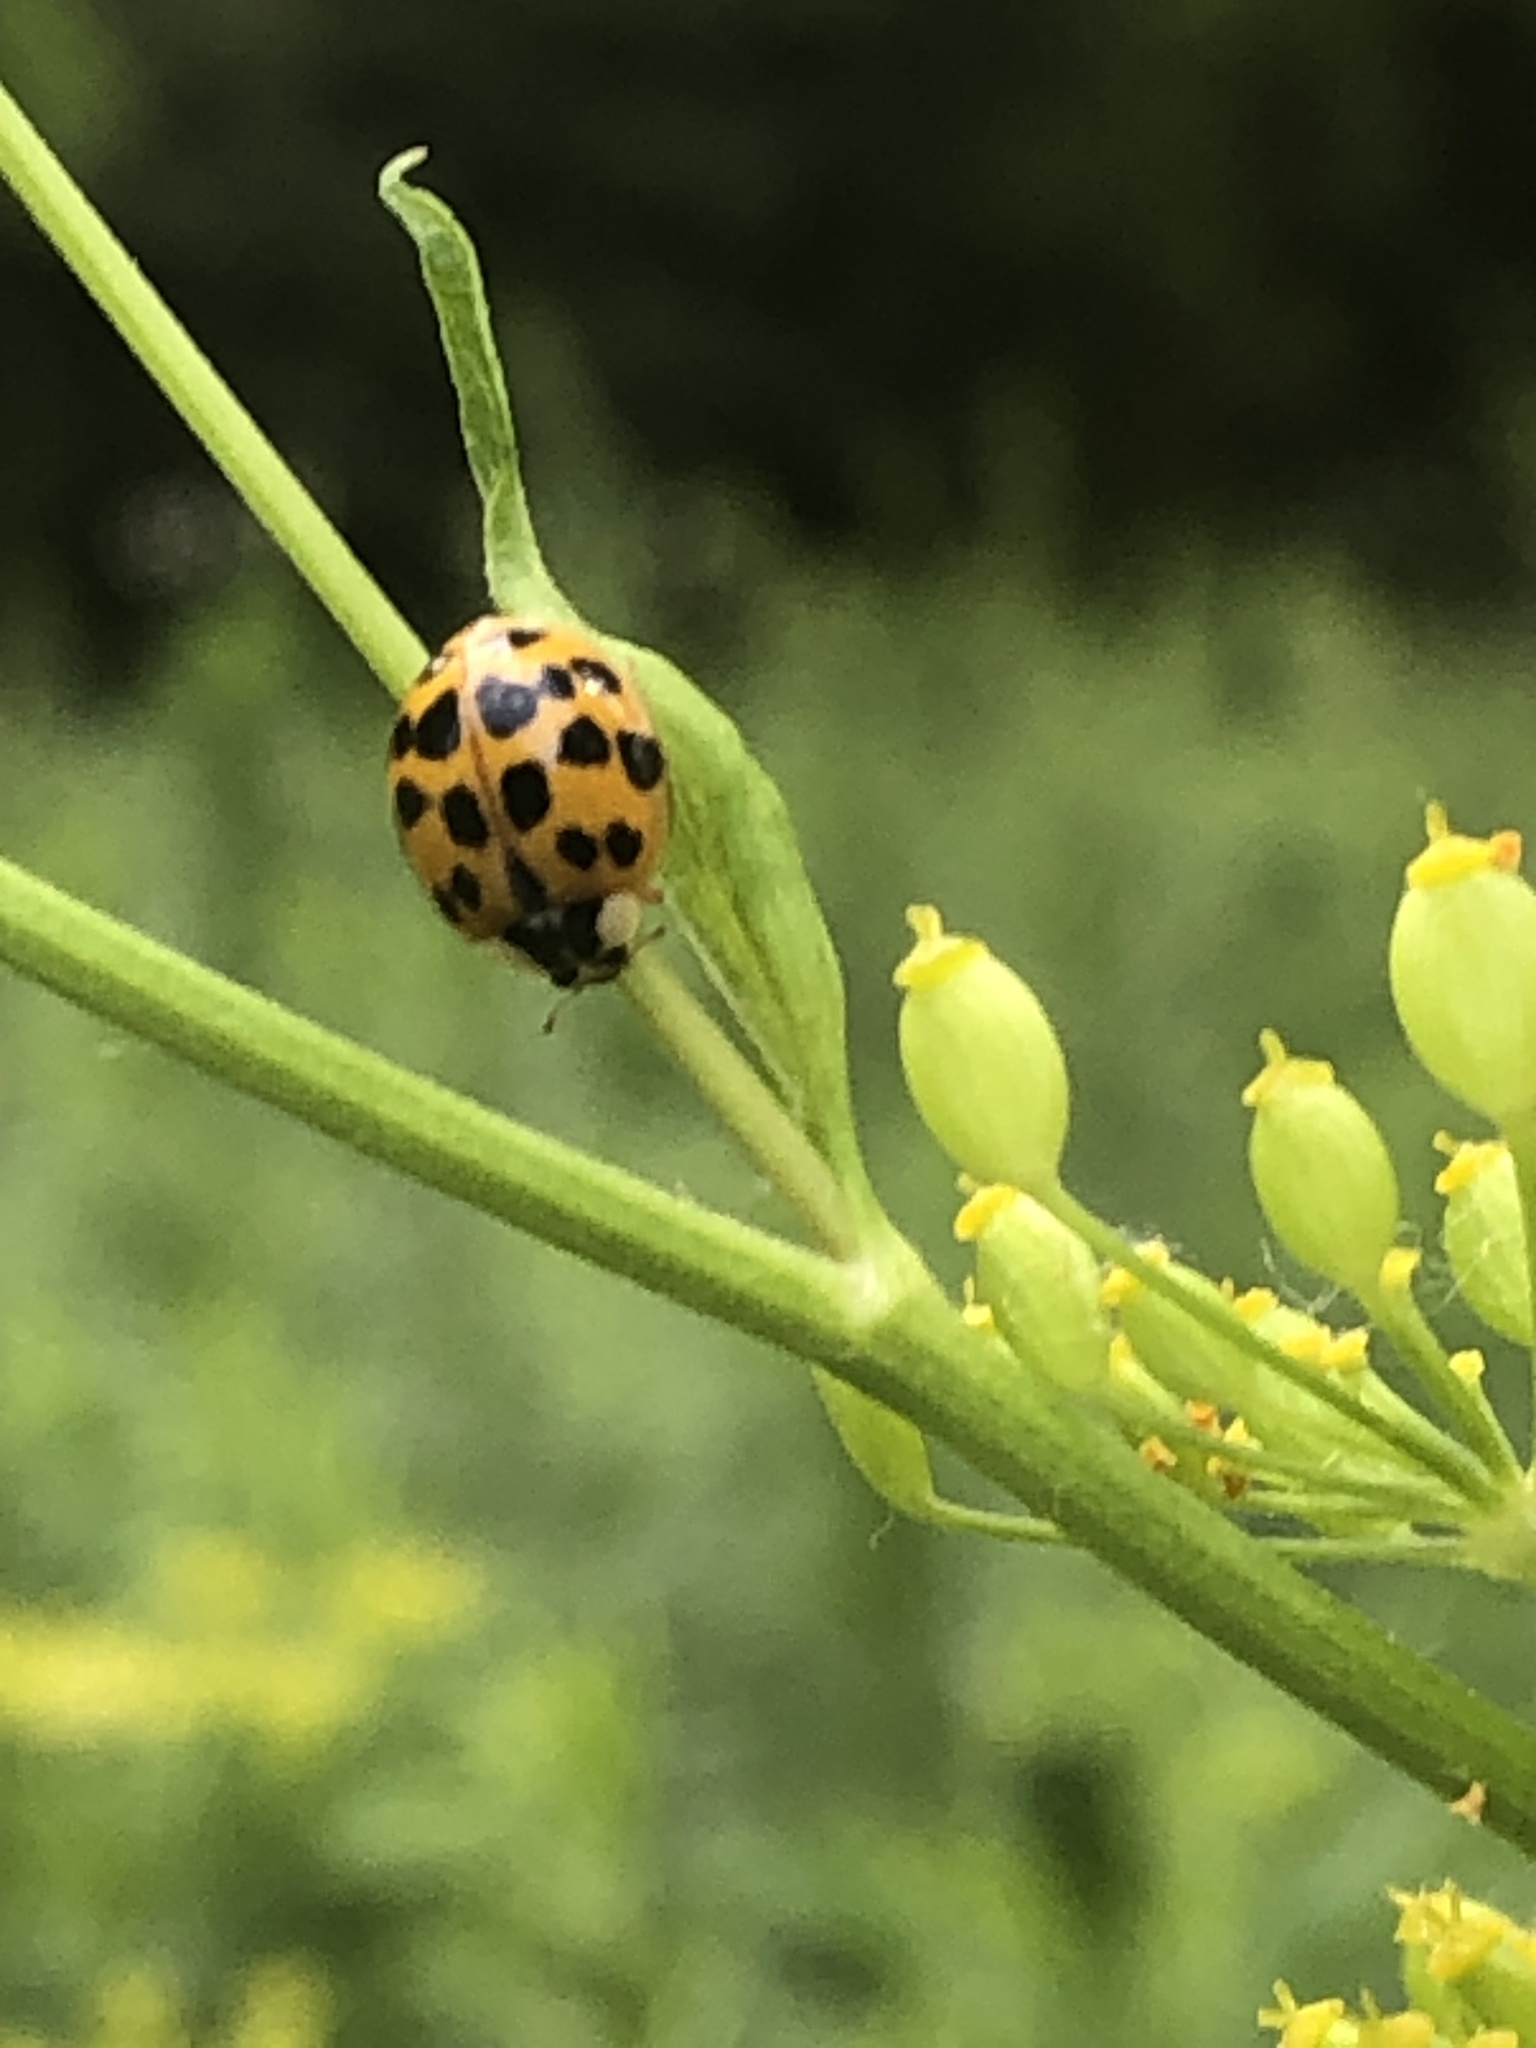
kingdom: Animalia
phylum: Arthropoda
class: Insecta
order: Coleoptera
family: Coccinellidae
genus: Harmonia
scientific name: Harmonia axyridis
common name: Harlequin ladybird
